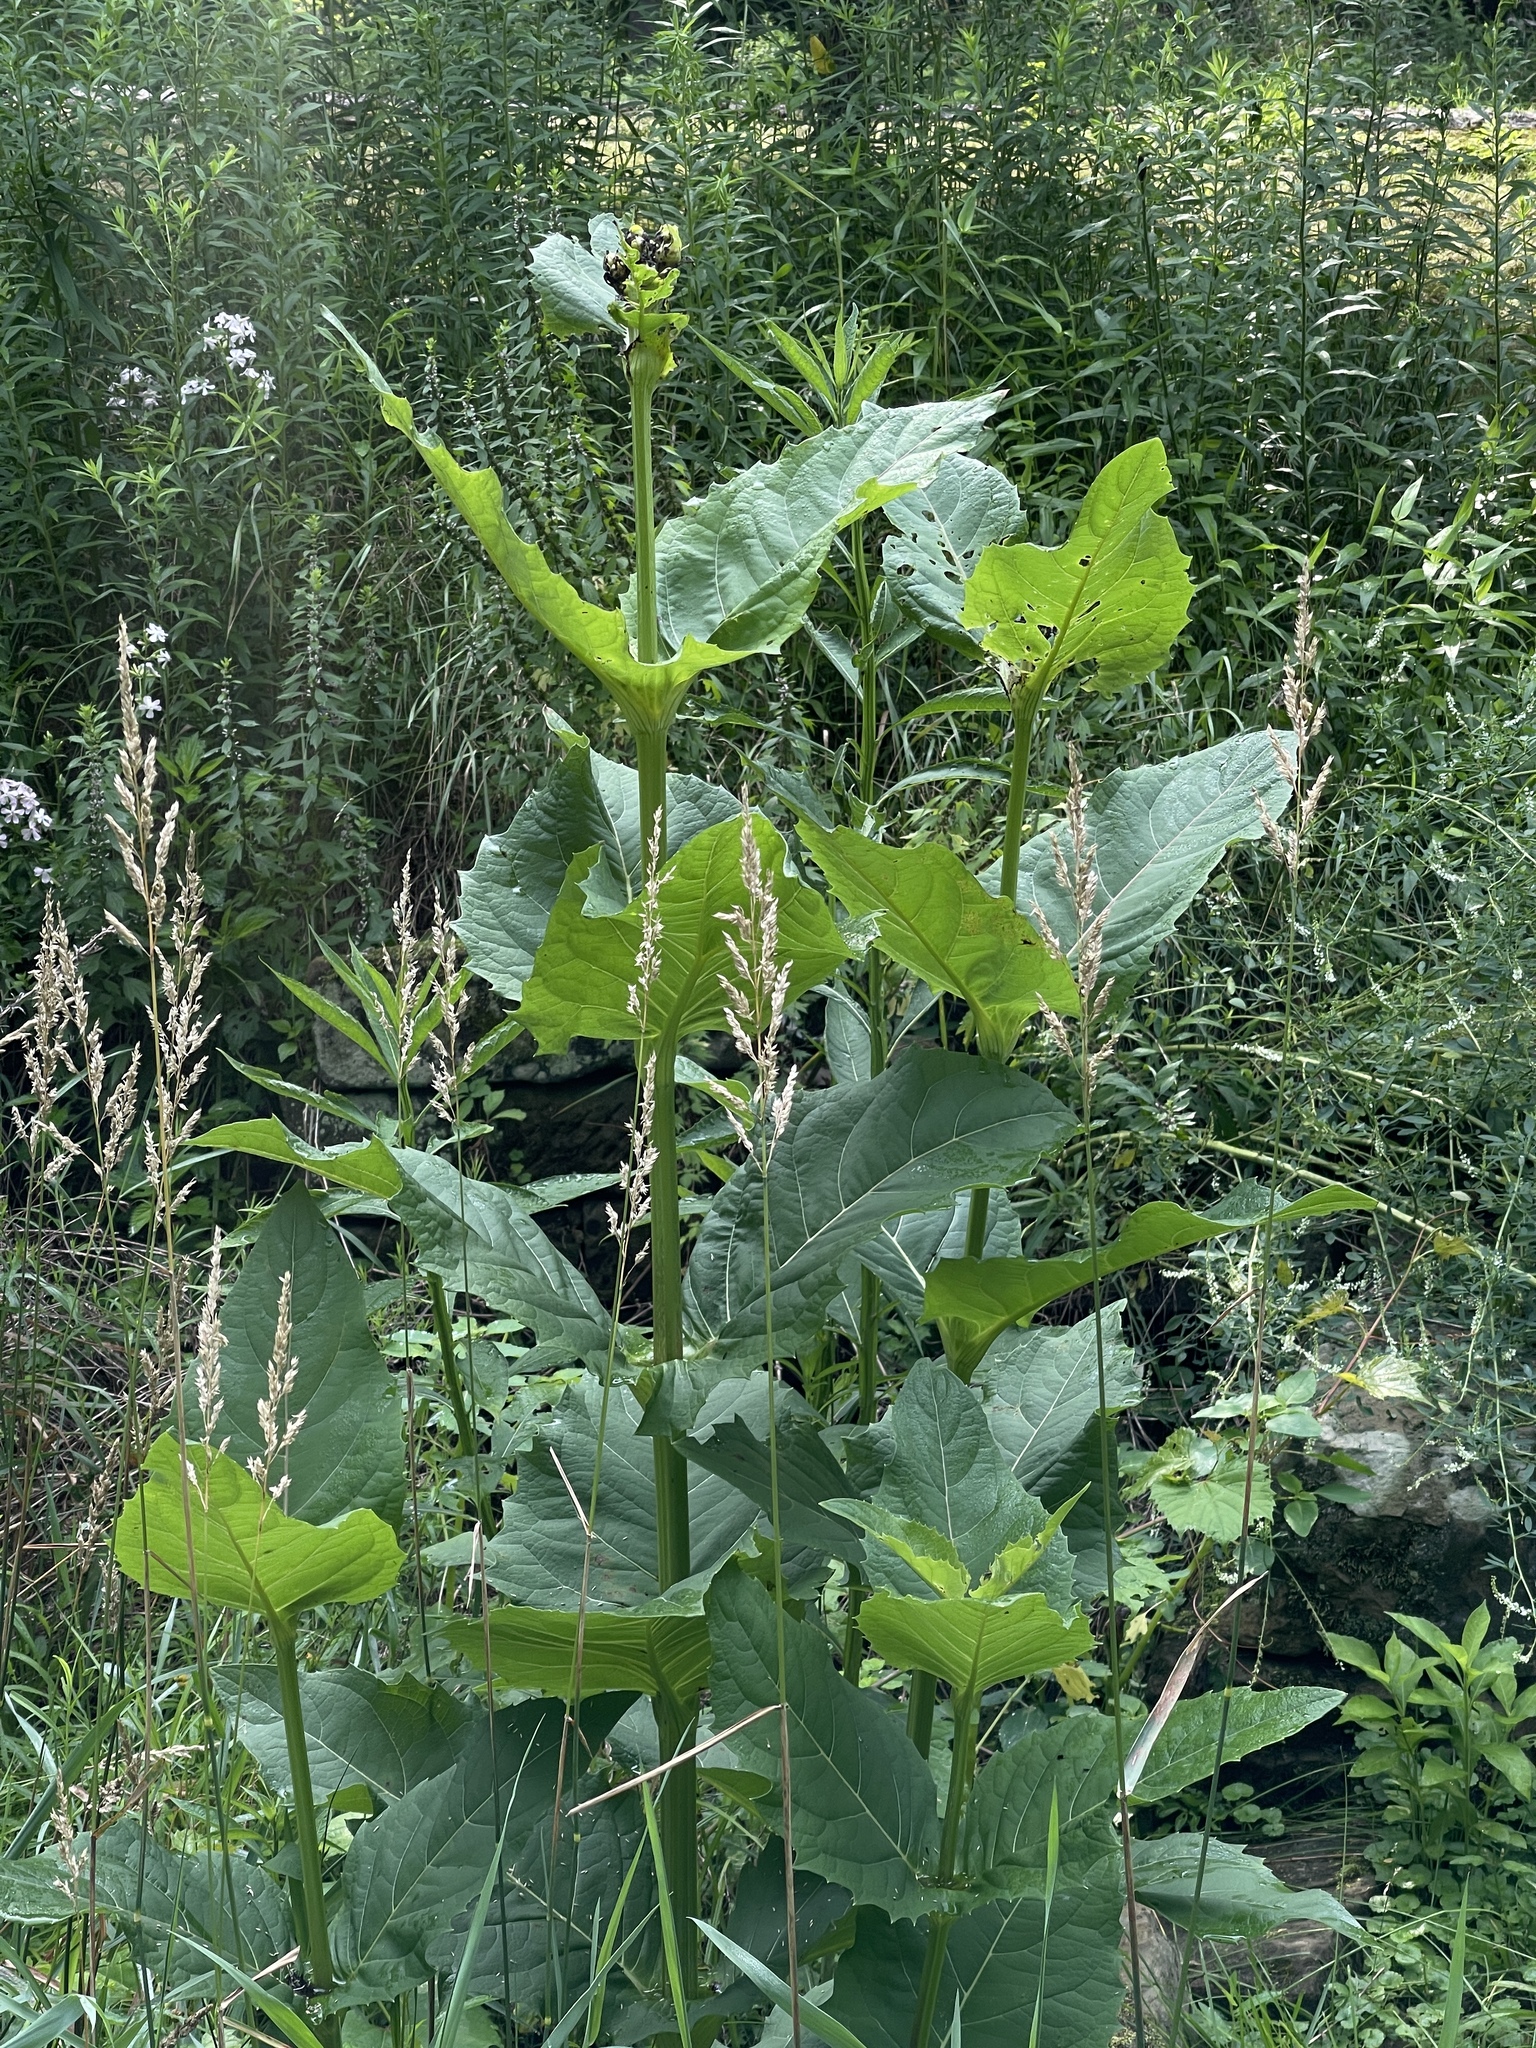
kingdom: Plantae
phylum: Tracheophyta
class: Magnoliopsida
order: Asterales
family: Asteraceae
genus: Silphium
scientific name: Silphium perfoliatum
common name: Cup-plant
